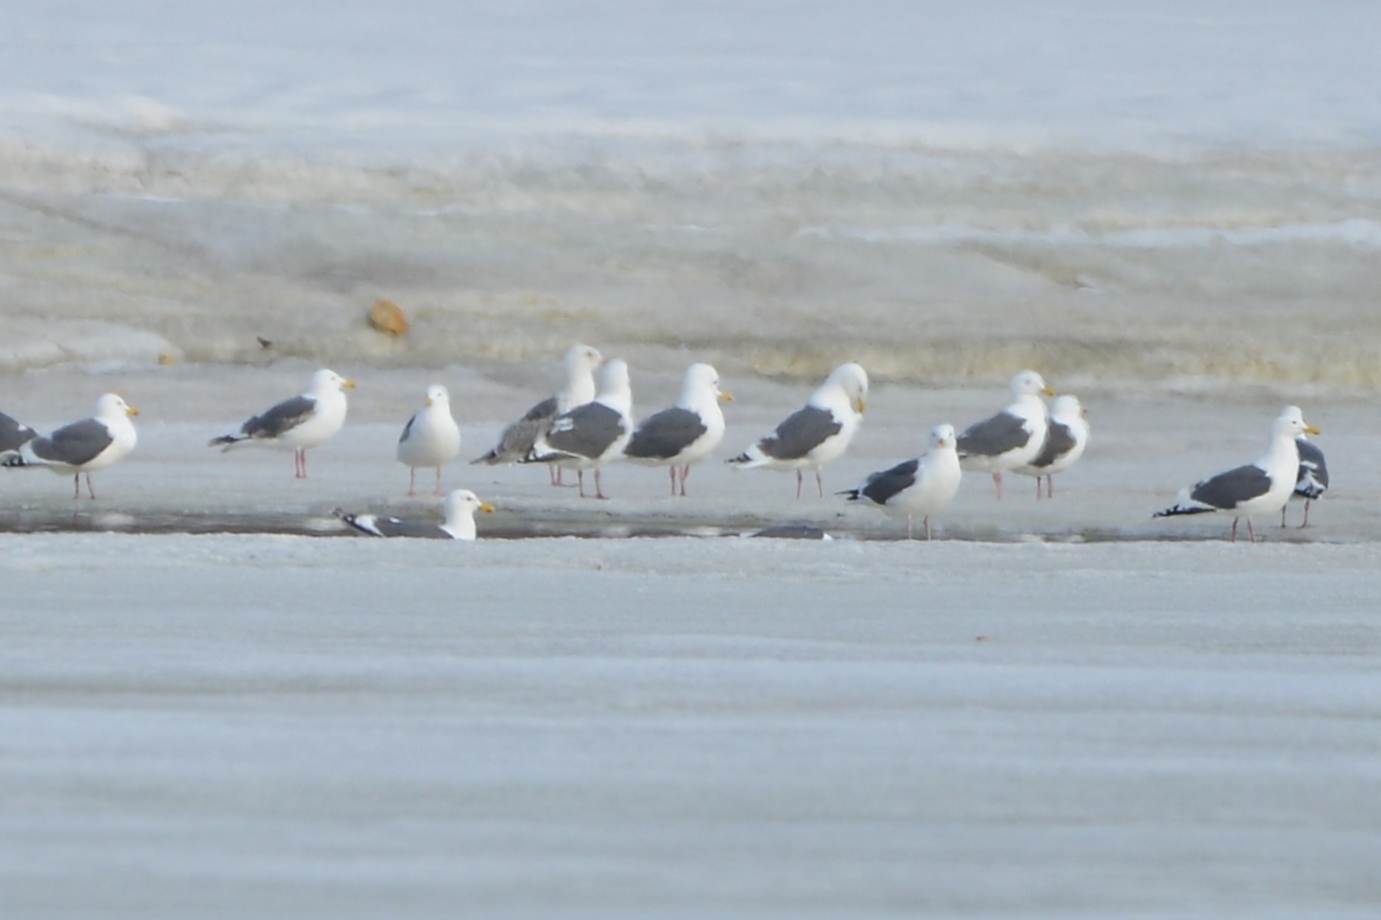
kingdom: Animalia
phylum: Chordata
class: Aves
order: Charadriiformes
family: Laridae
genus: Larus
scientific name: Larus schistisagus
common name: Slaty-backed gull
